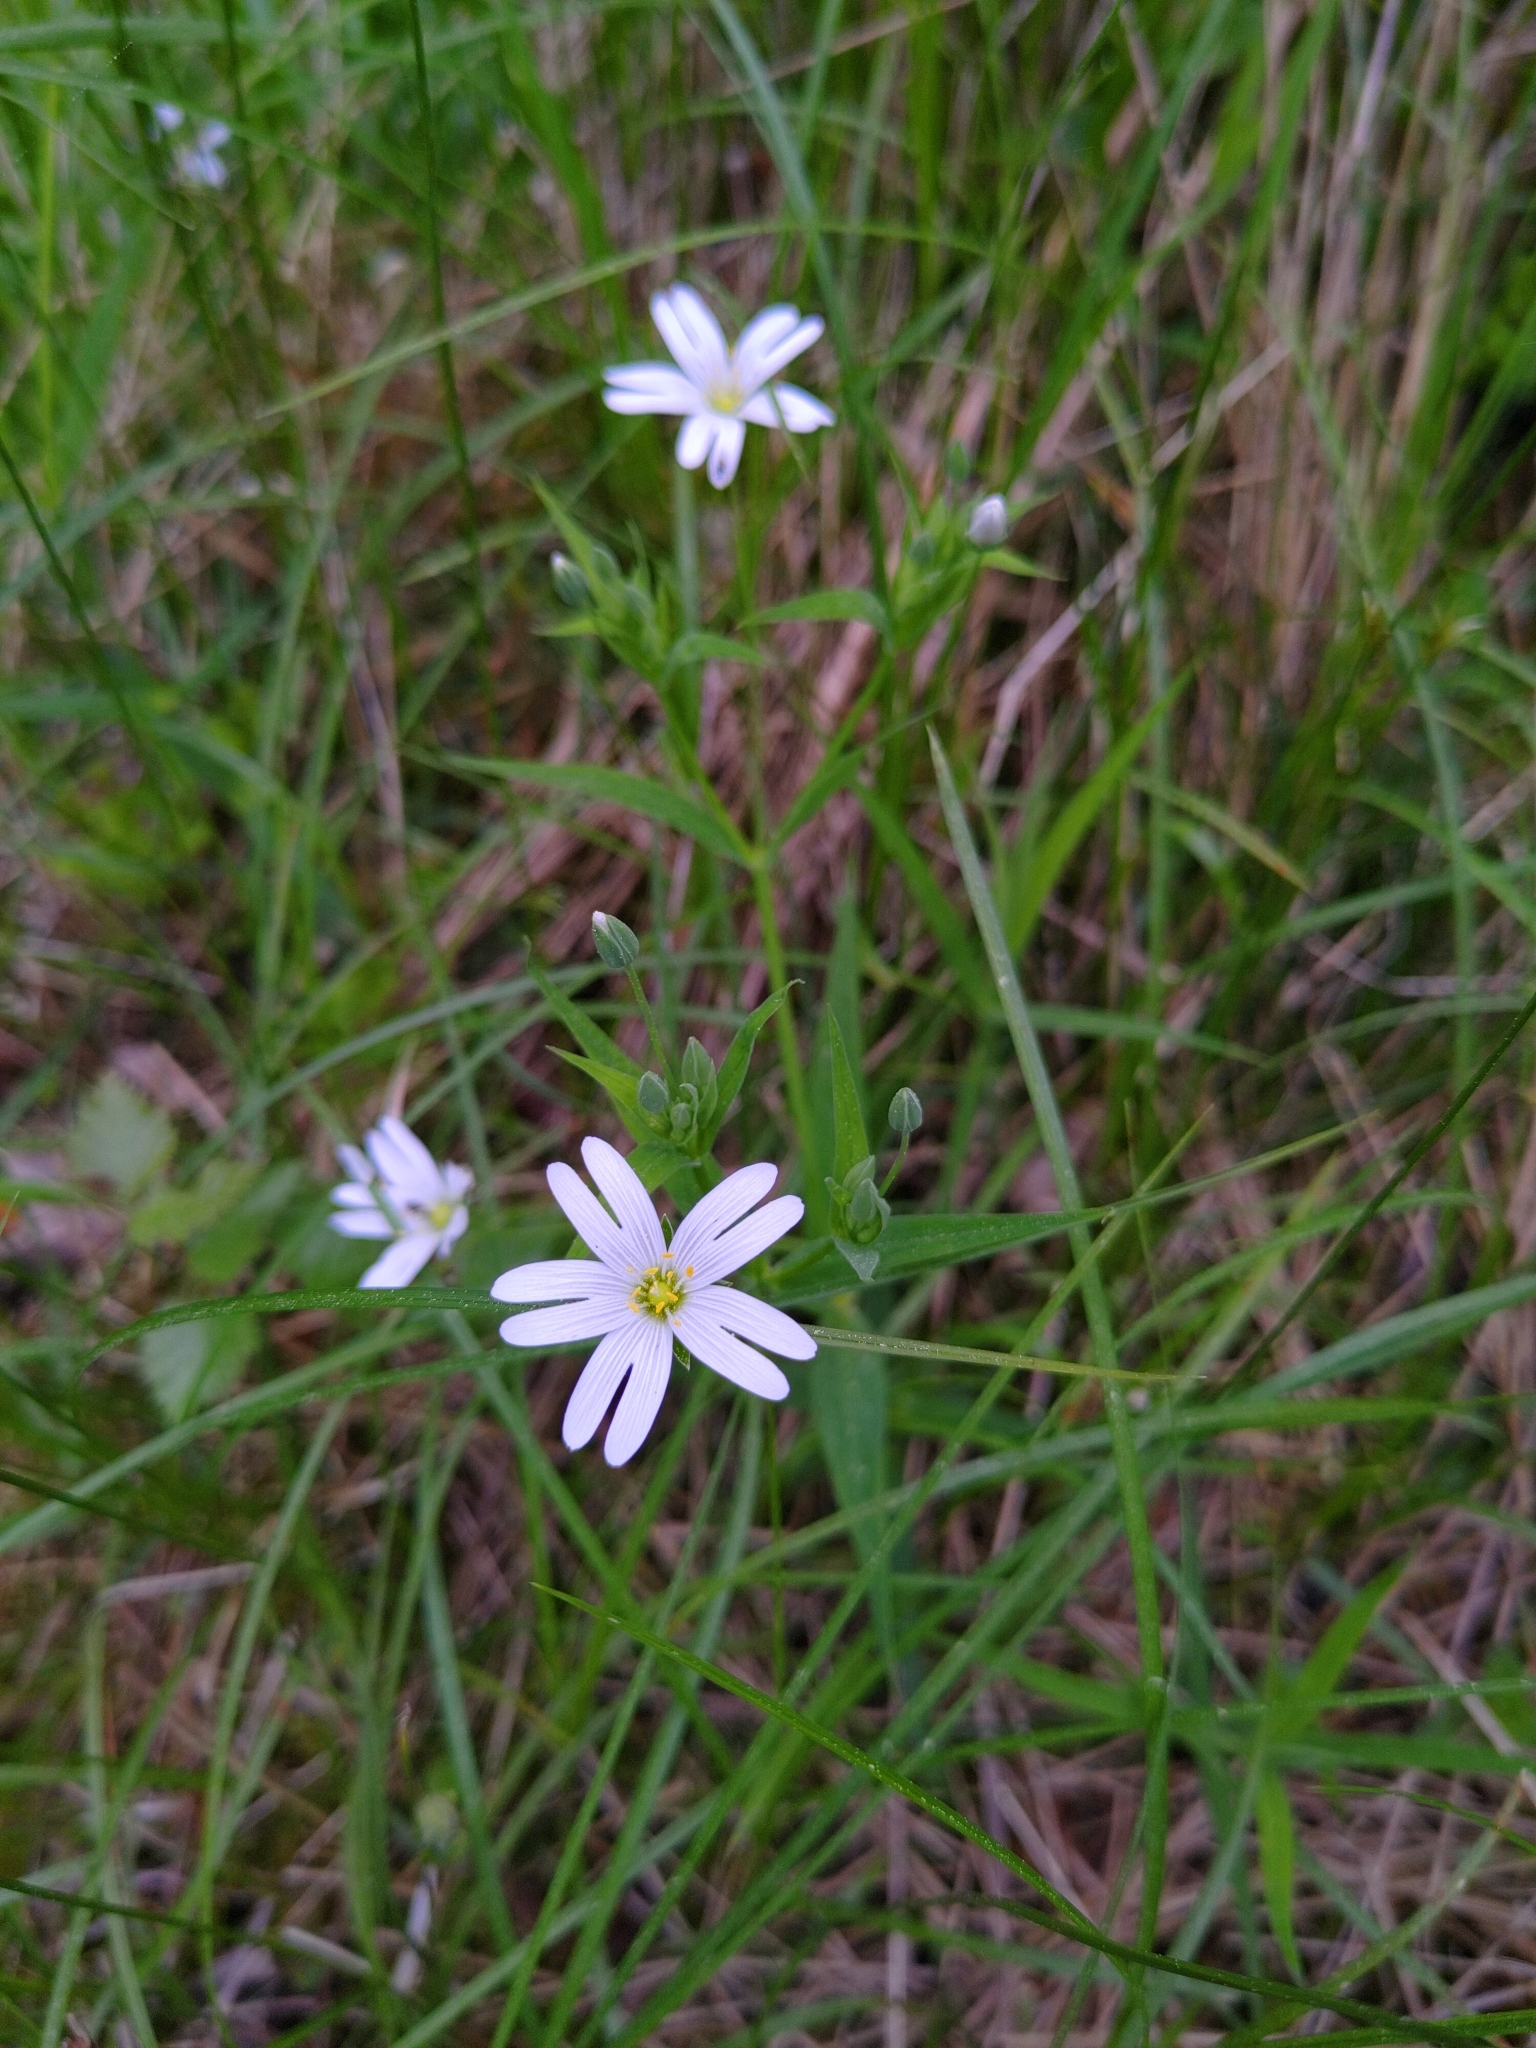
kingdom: Plantae
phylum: Tracheophyta
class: Magnoliopsida
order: Caryophyllales
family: Caryophyllaceae
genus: Rabelera
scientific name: Rabelera holostea
